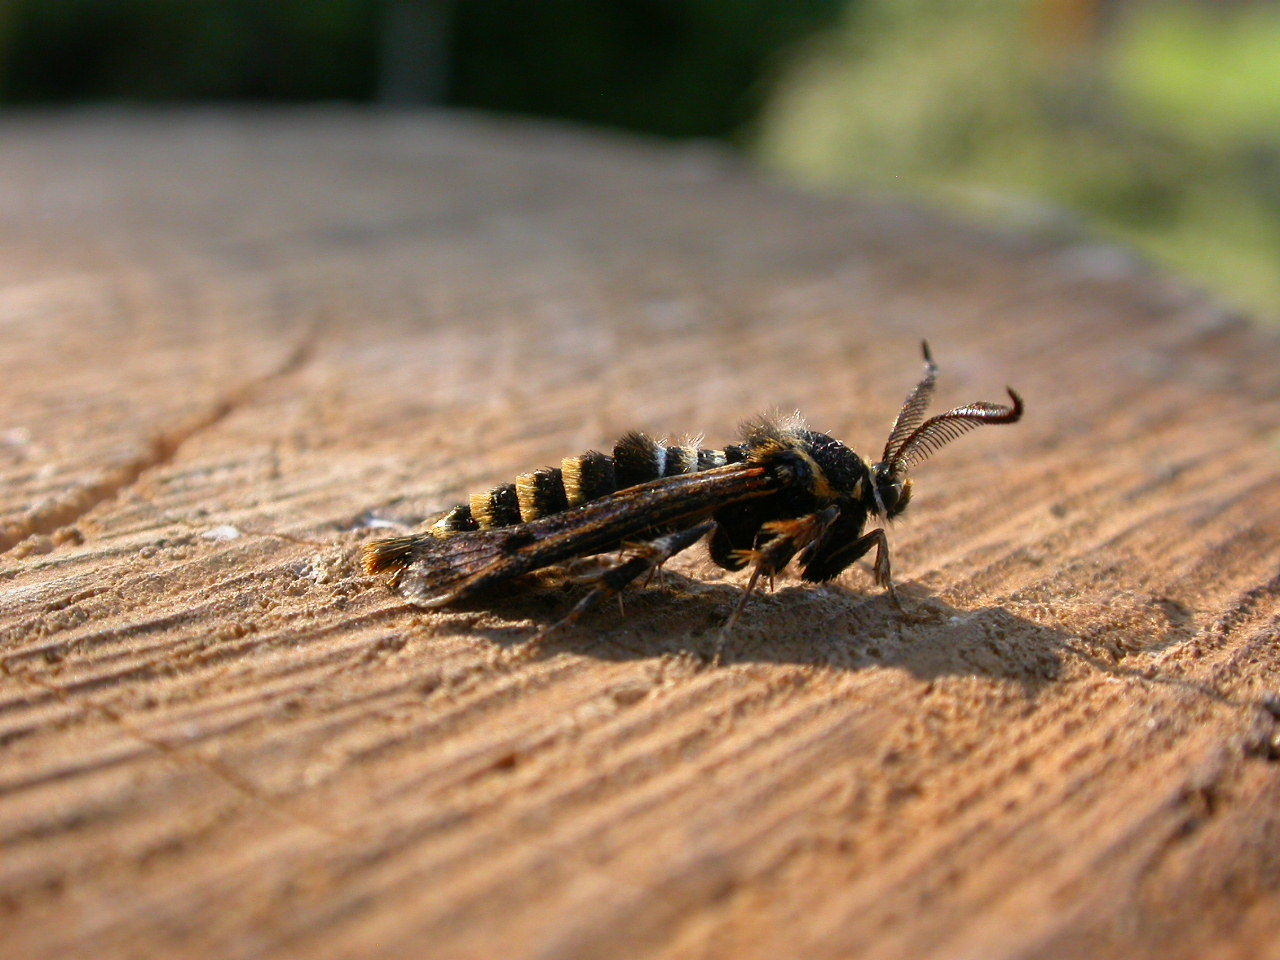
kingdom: Animalia
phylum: Arthropoda
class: Insecta
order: Lepidoptera
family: Sesiidae
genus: Pennisetia
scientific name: Pennisetia hylaeiformis
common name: Raspberry clearwing
